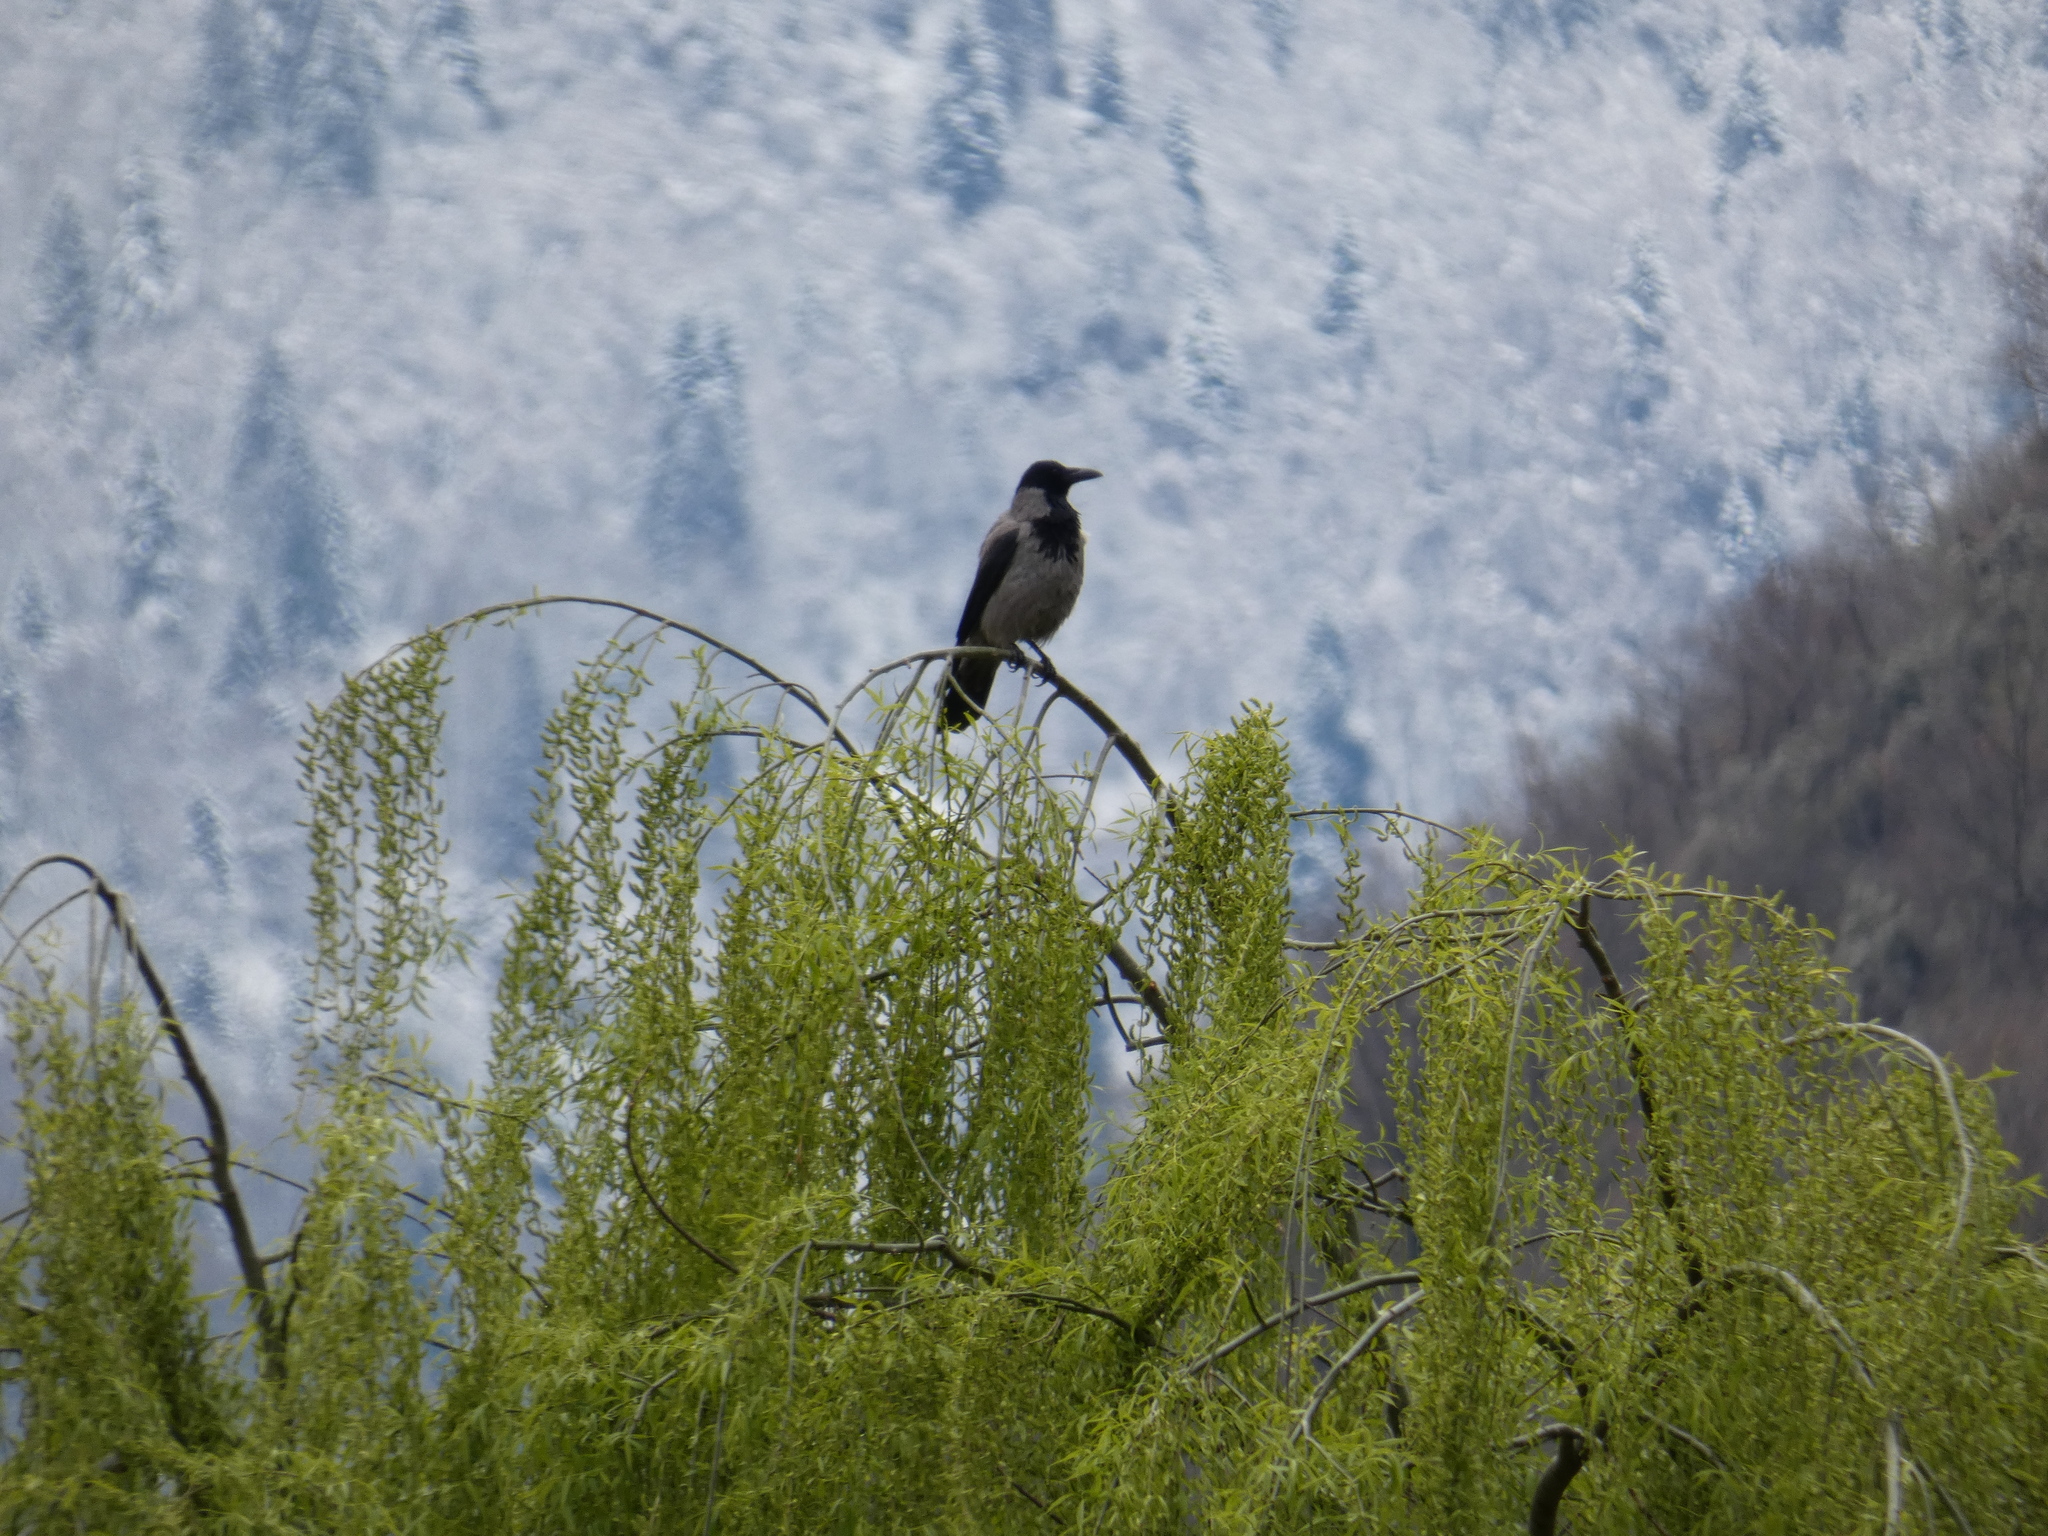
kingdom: Animalia
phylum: Chordata
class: Aves
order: Passeriformes
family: Corvidae
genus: Corvus
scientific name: Corvus cornix
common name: Hooded crow
